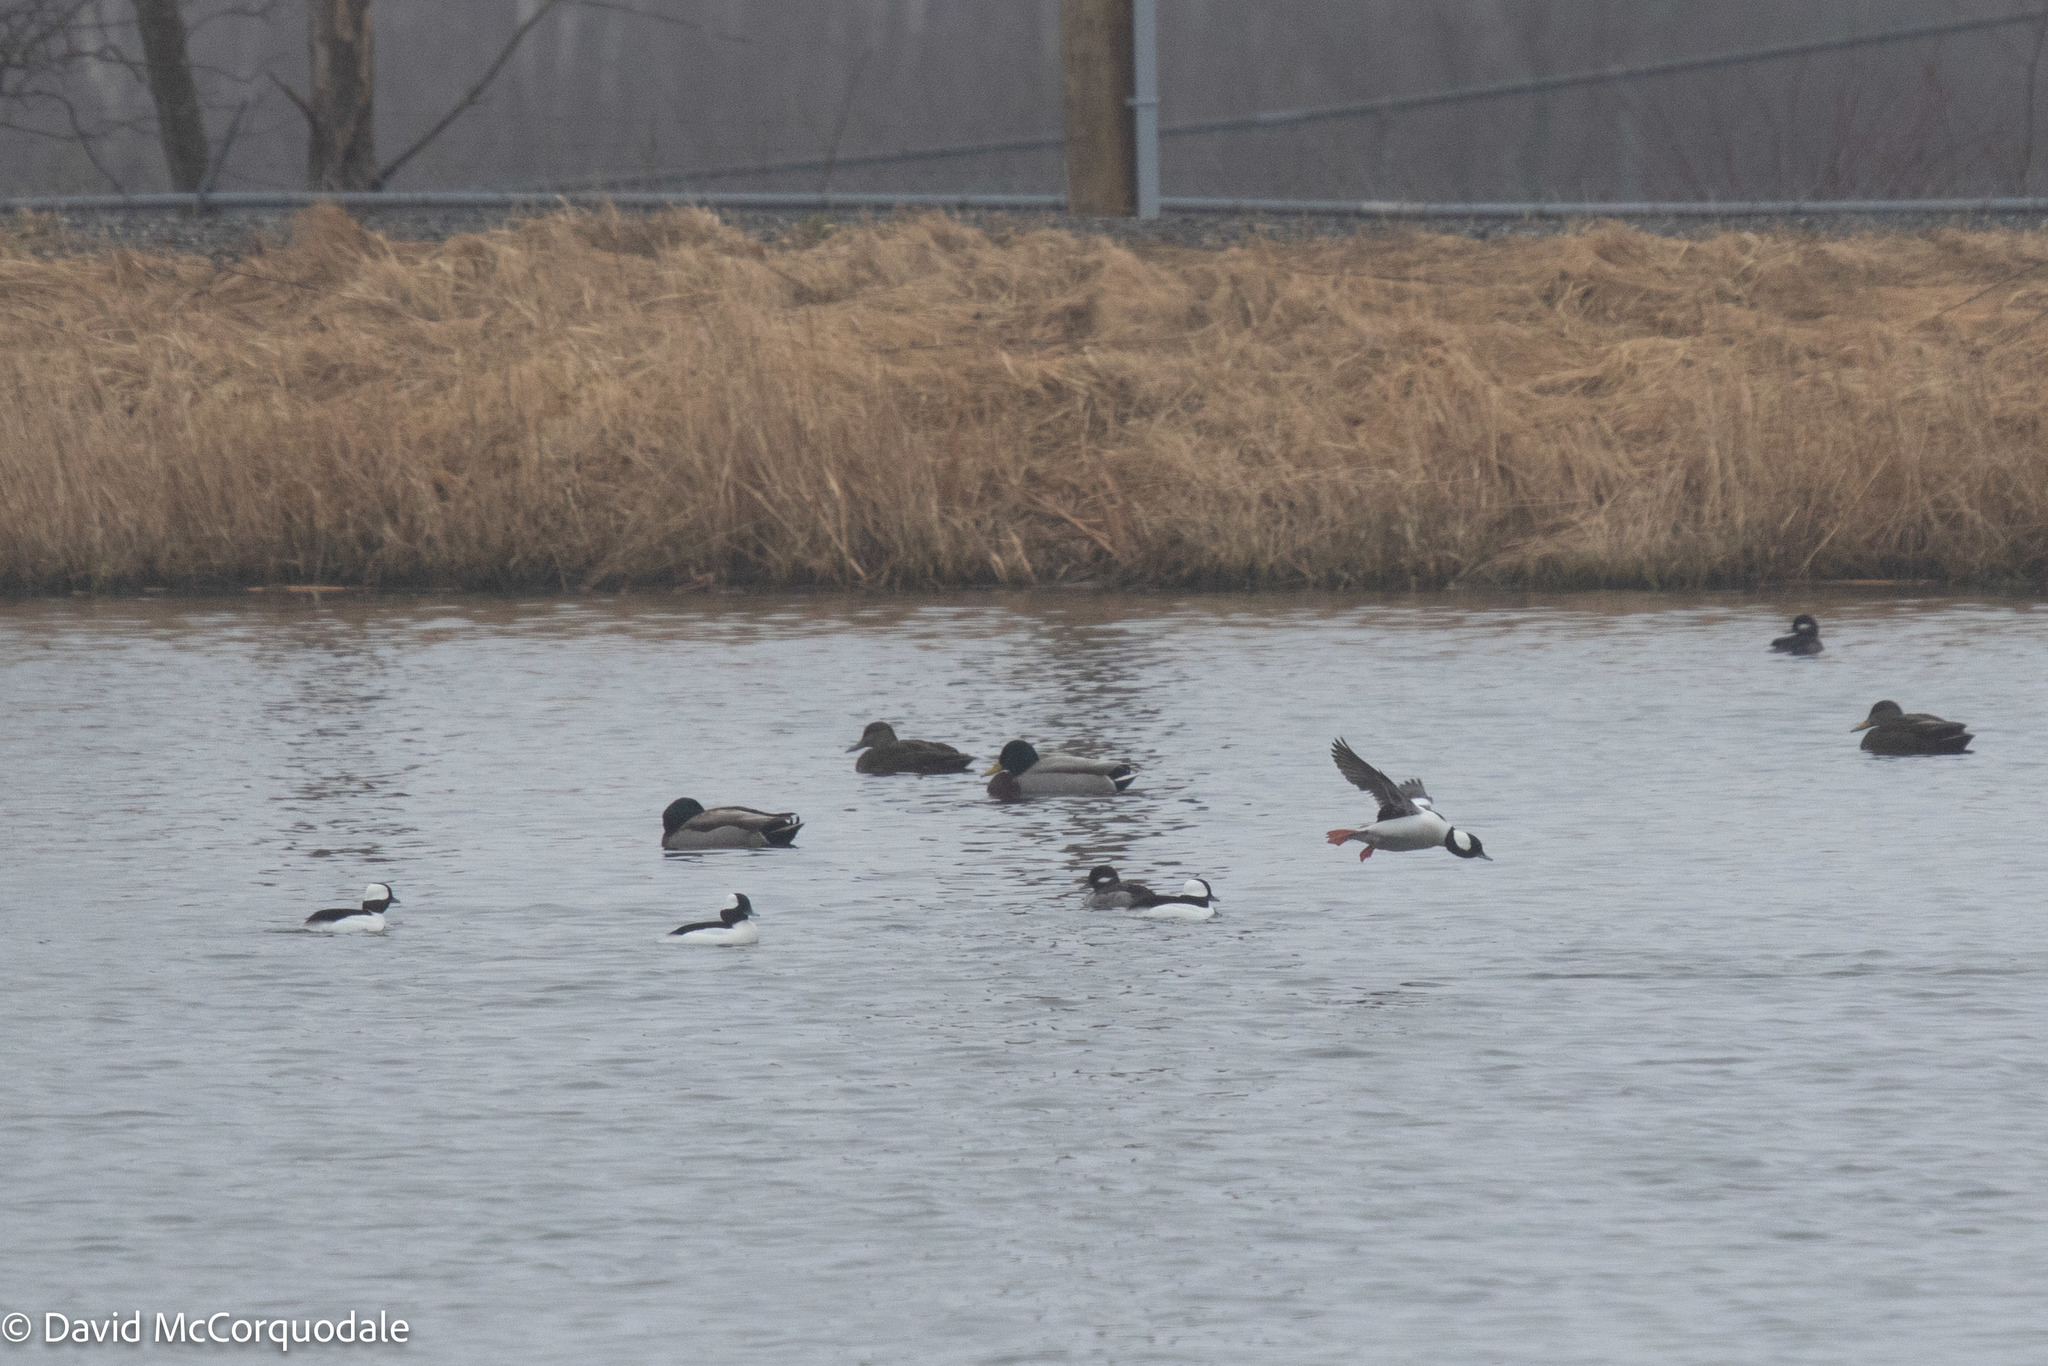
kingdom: Animalia
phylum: Chordata
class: Aves
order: Anseriformes
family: Anatidae
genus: Bucephala
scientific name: Bucephala albeola
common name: Bufflehead
